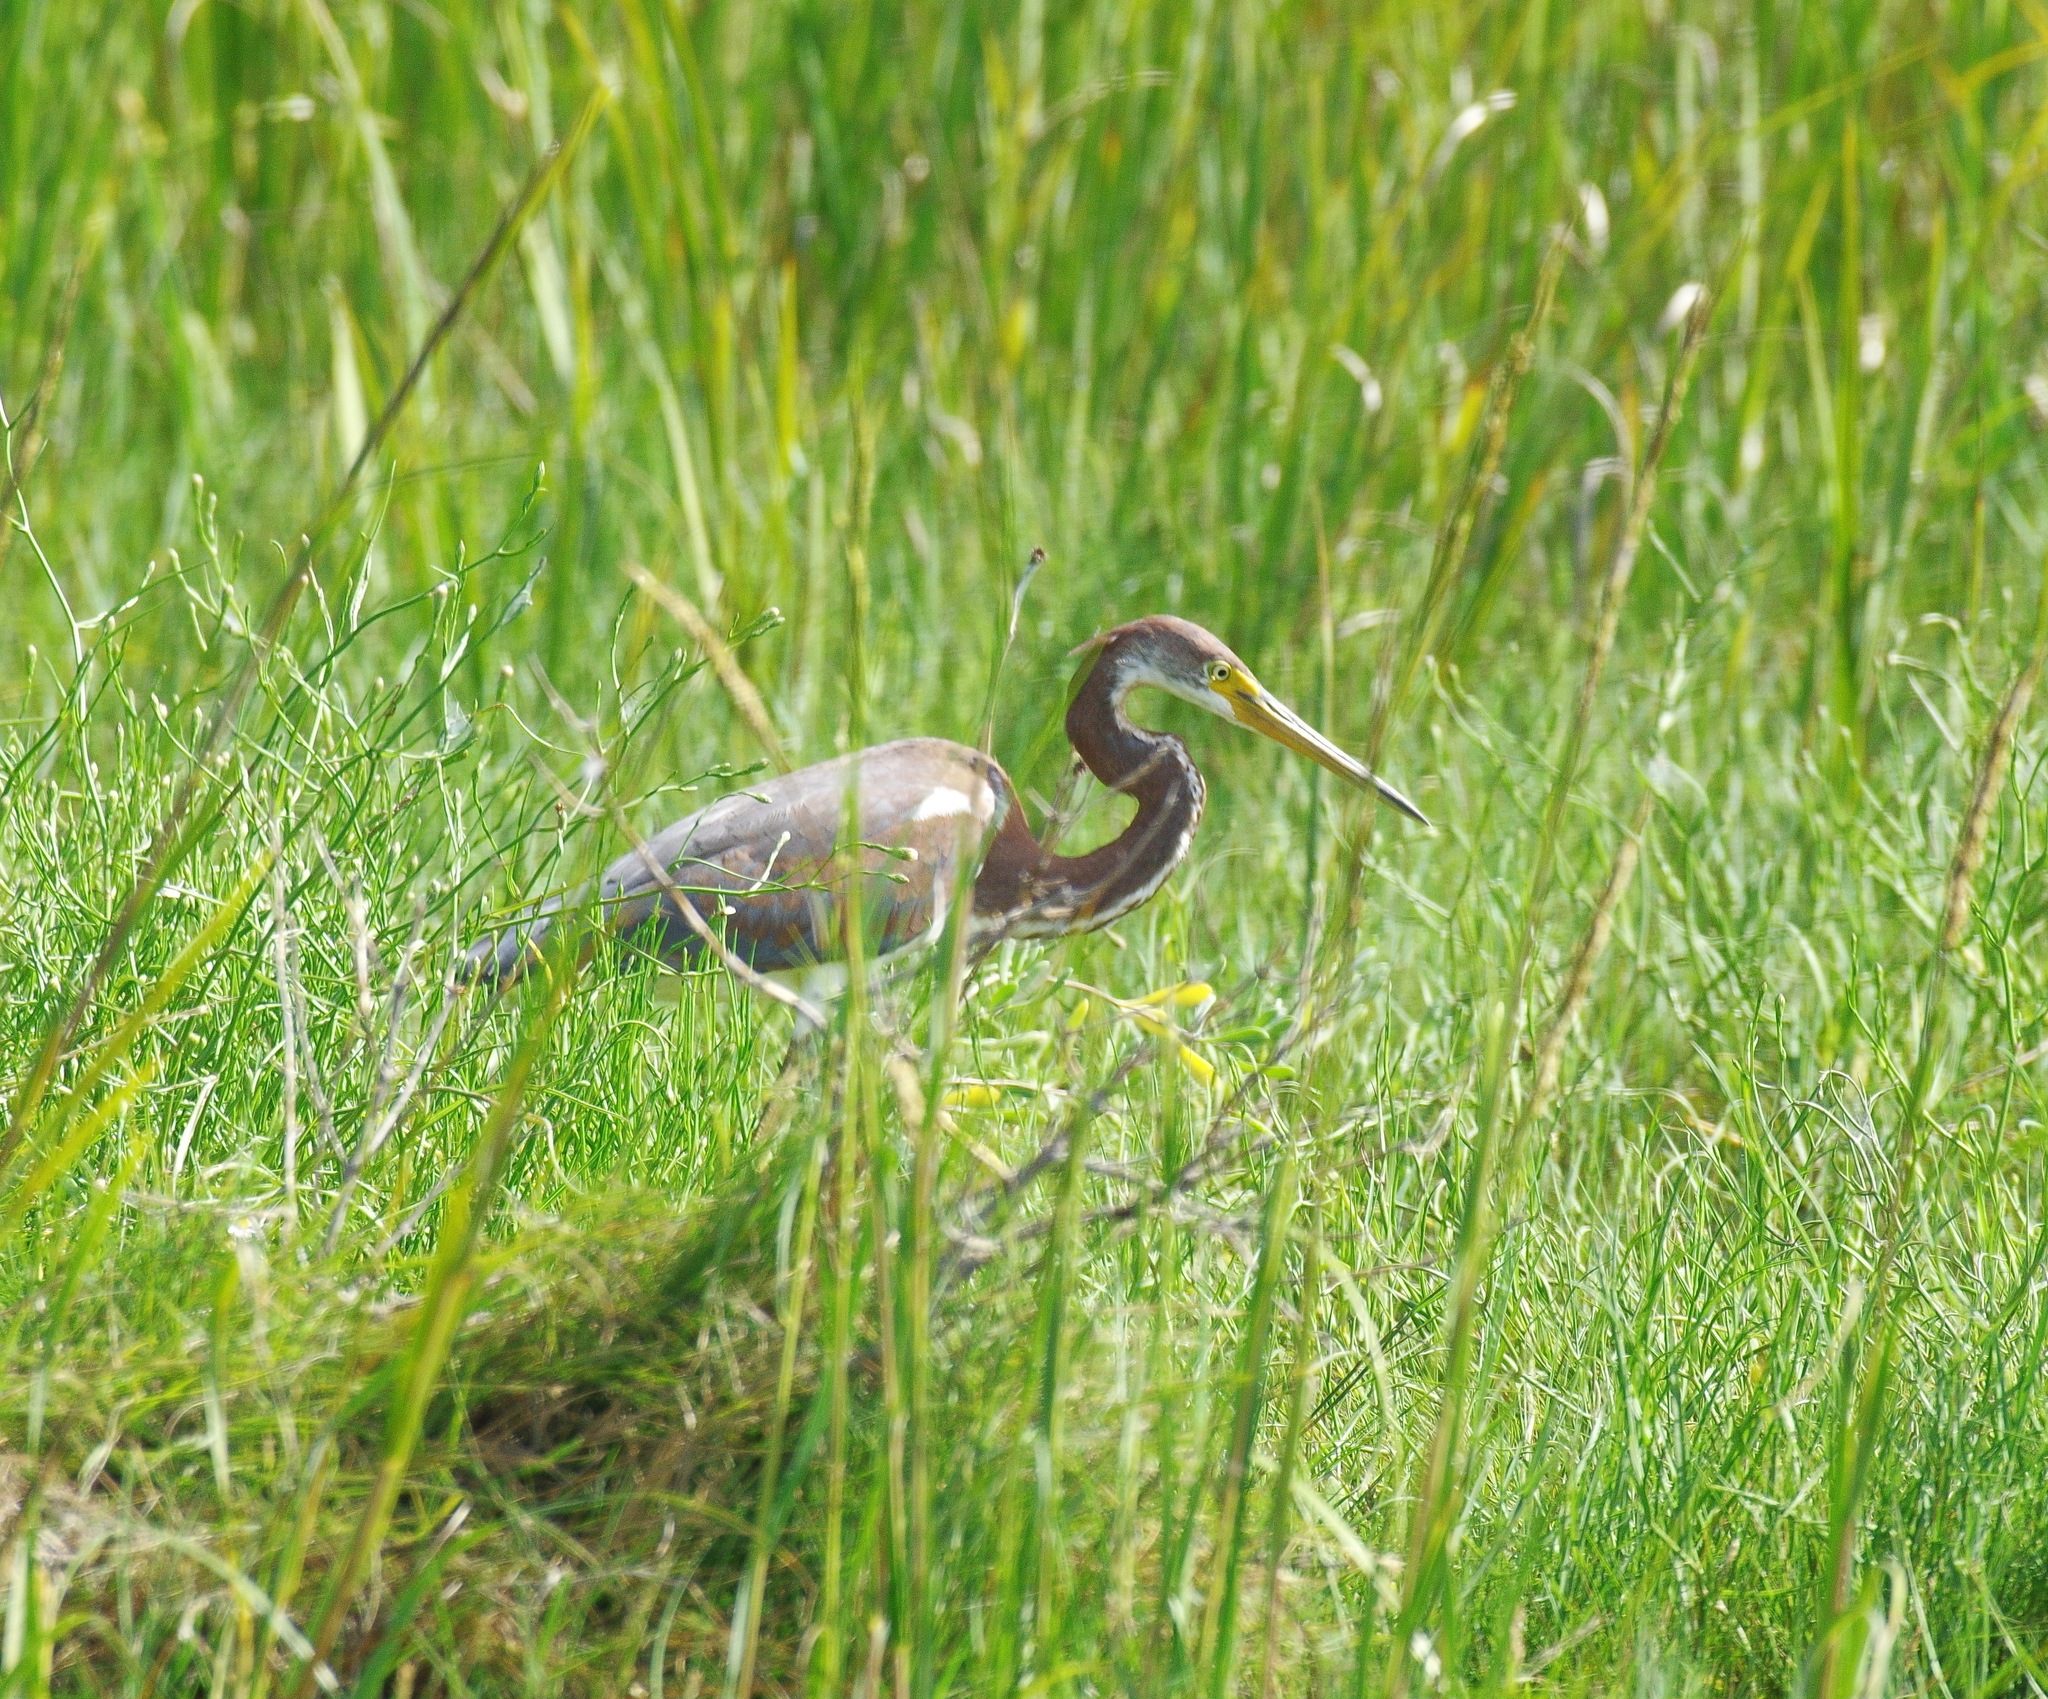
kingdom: Animalia
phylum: Chordata
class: Aves
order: Pelecaniformes
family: Ardeidae
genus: Egretta
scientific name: Egretta tricolor
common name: Tricolored heron
